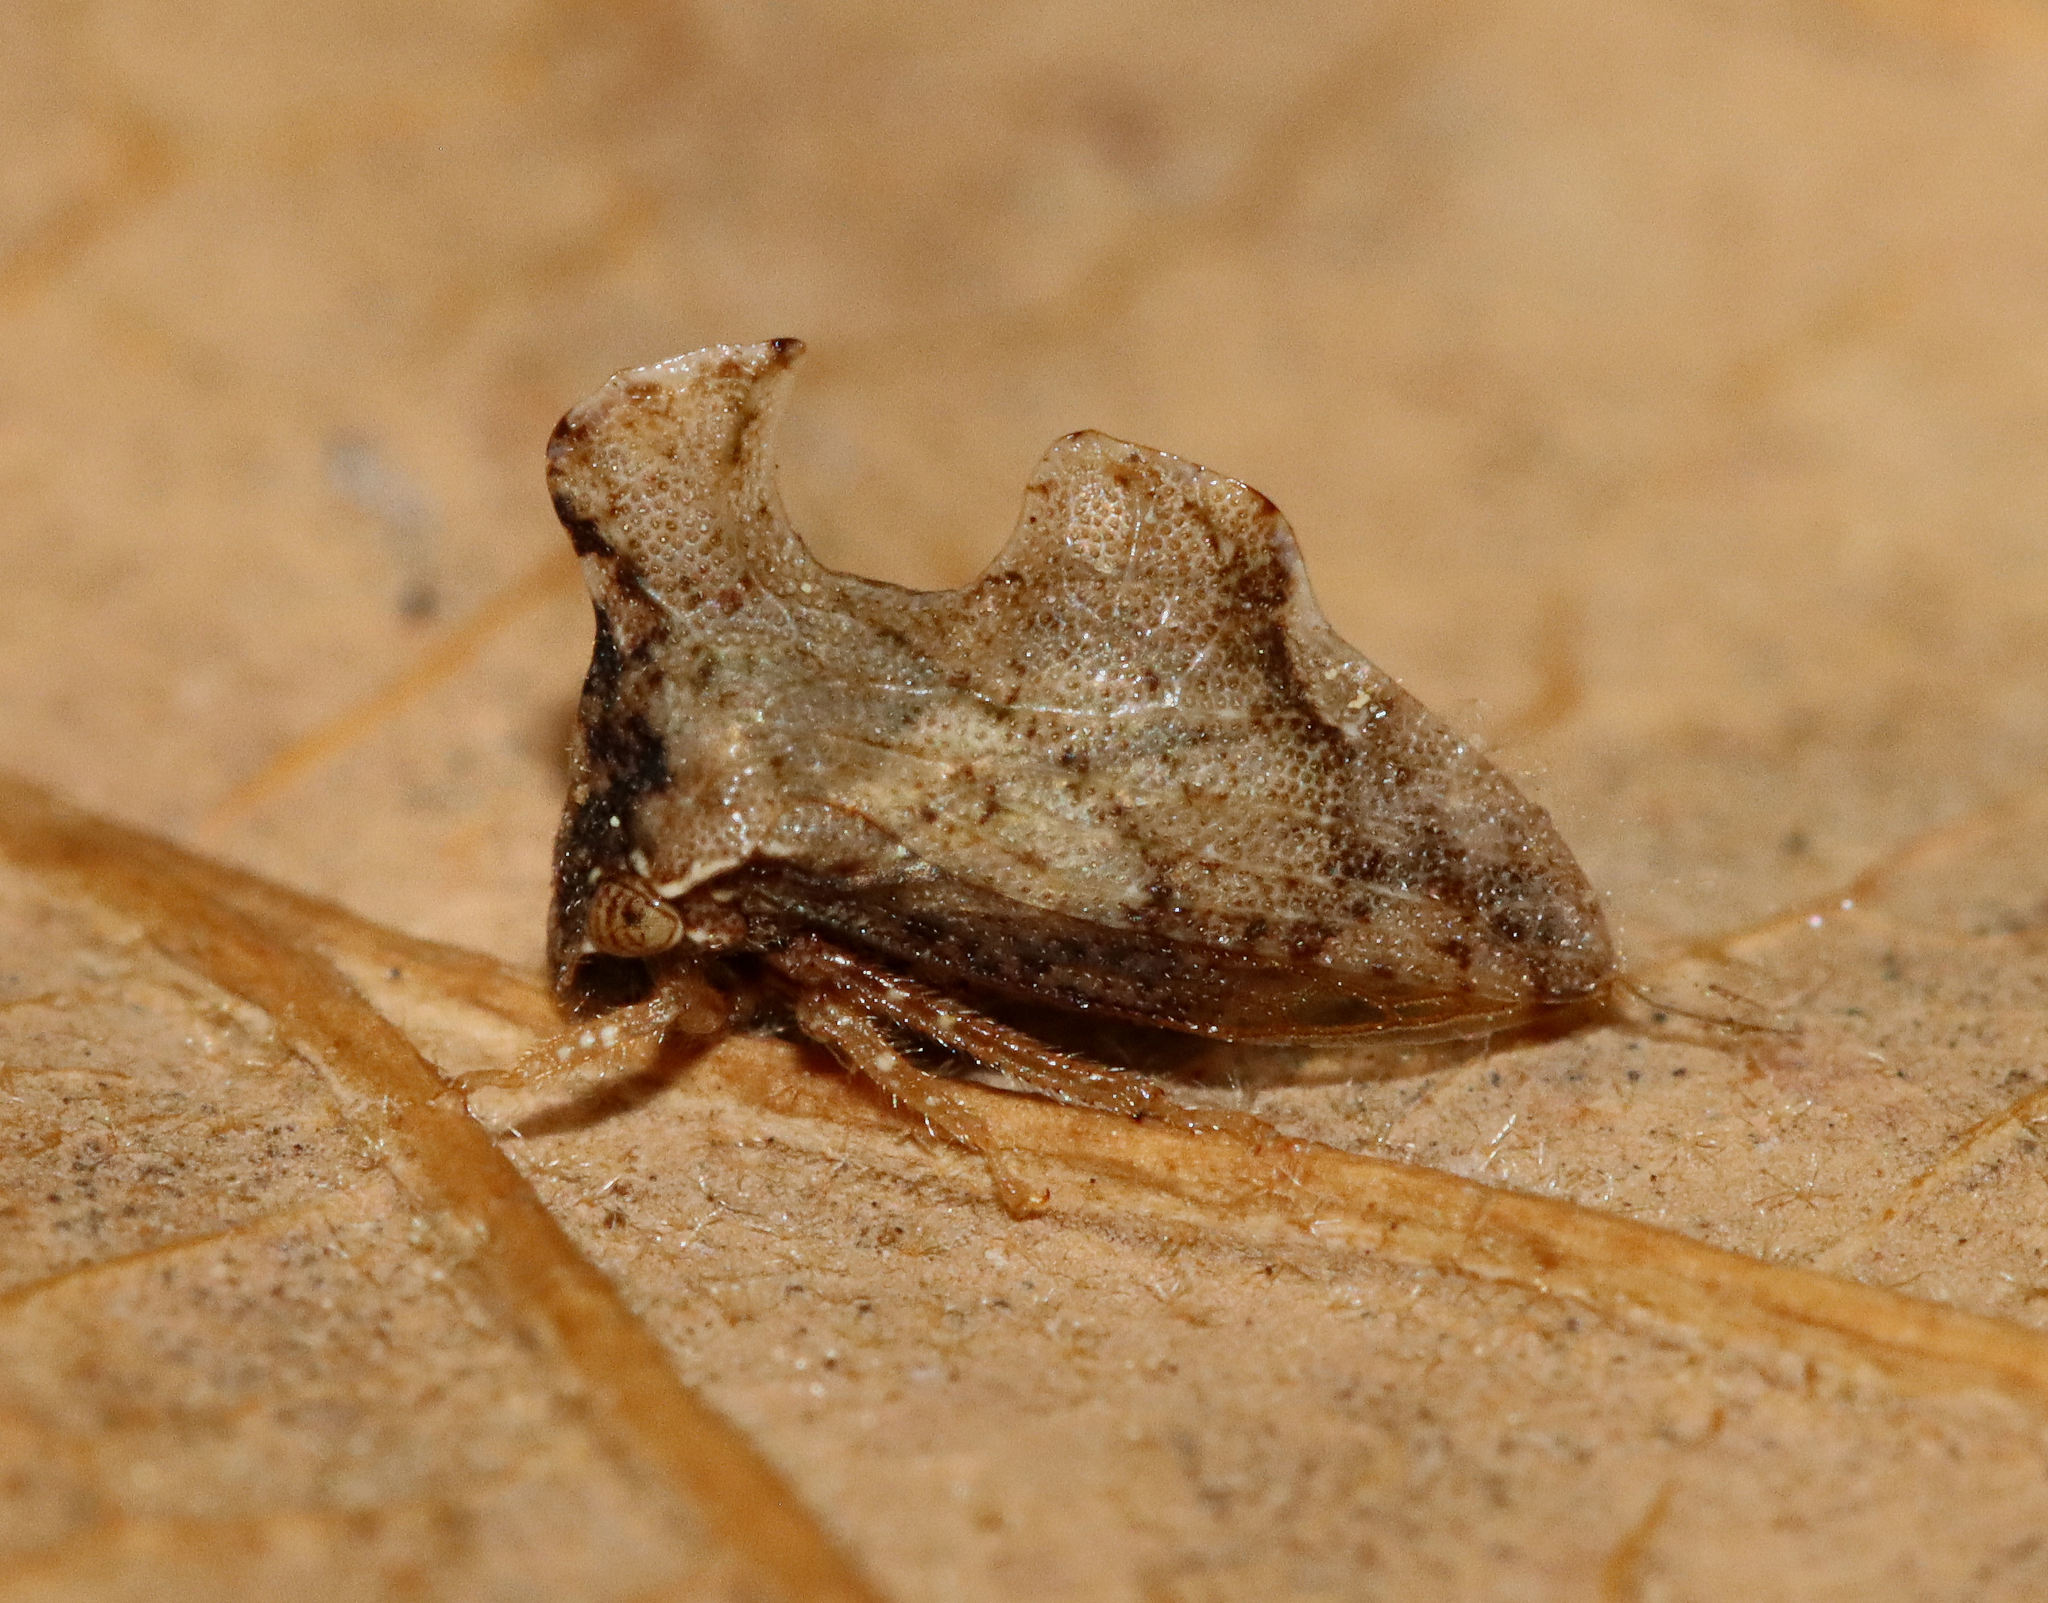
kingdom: Animalia
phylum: Arthropoda
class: Insecta
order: Hemiptera
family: Membracidae
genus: Entylia
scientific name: Entylia carinata
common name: Keeled treehopper
